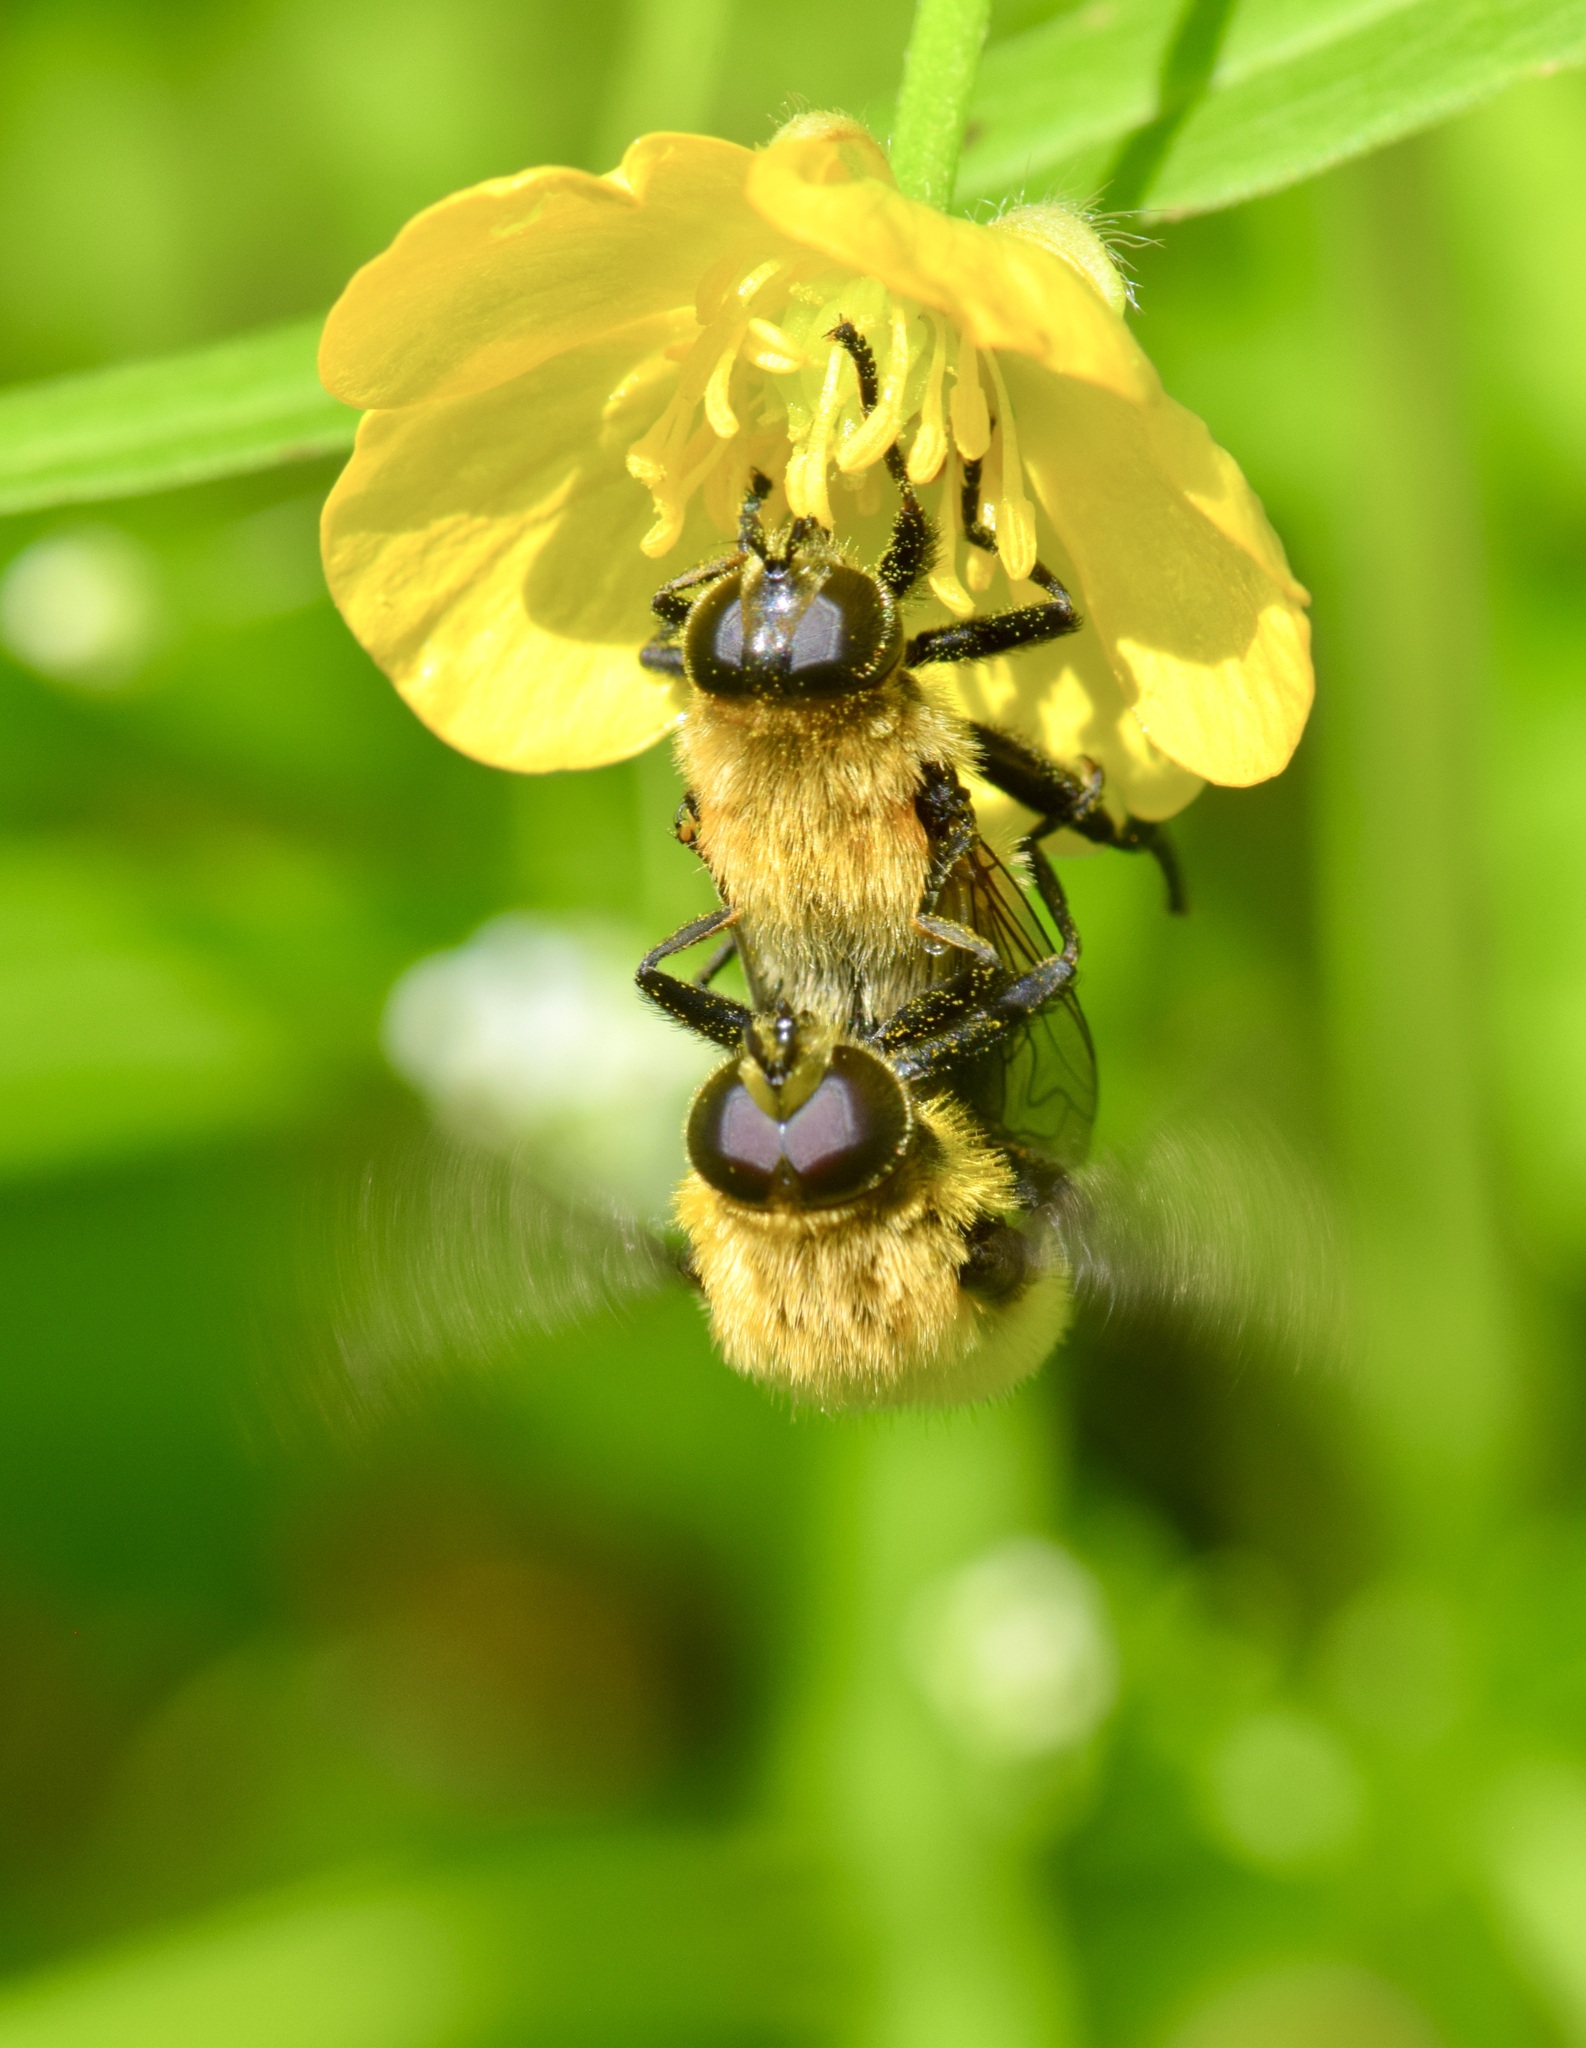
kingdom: Animalia
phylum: Arthropoda
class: Insecta
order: Diptera
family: Syrphidae
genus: Merodon
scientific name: Merodon equestris
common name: Greater bulb-fly
